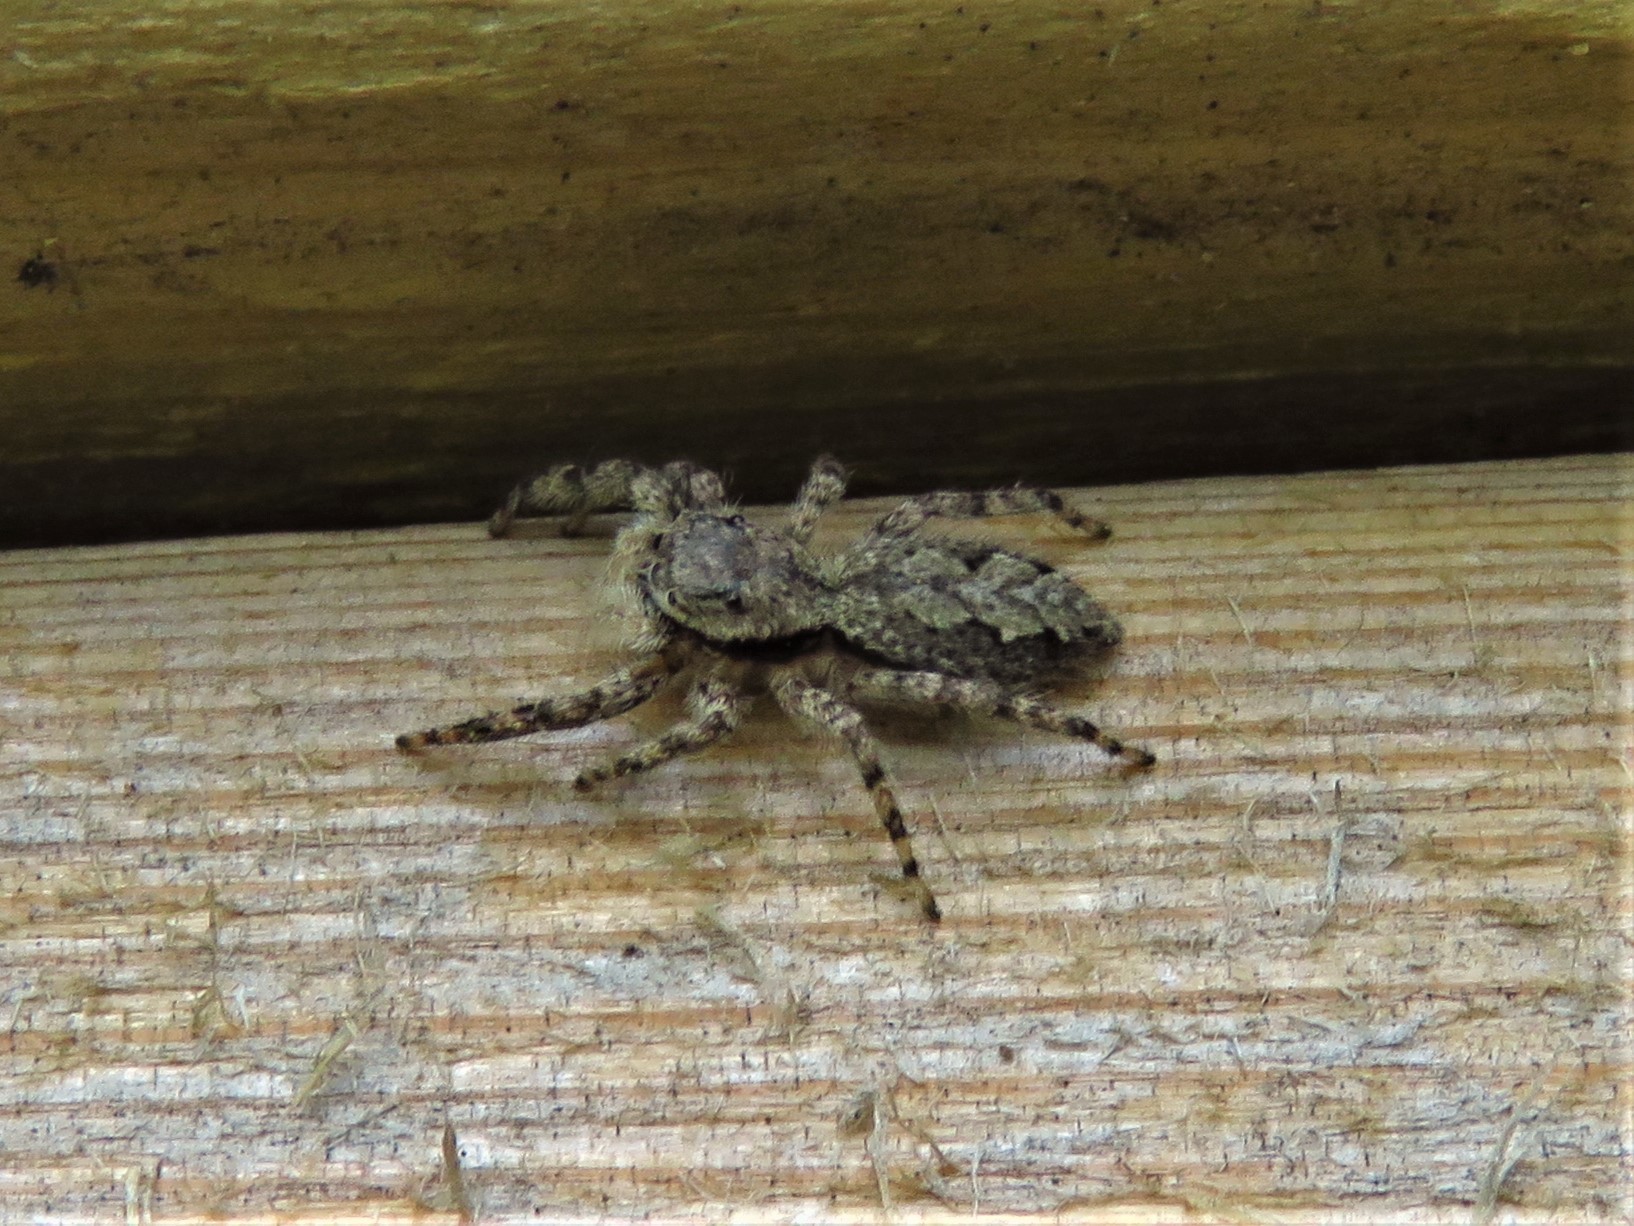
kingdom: Animalia
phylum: Arthropoda
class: Arachnida
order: Araneae
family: Salticidae
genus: Platycryptus
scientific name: Platycryptus undatus
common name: Tan jumping spider
